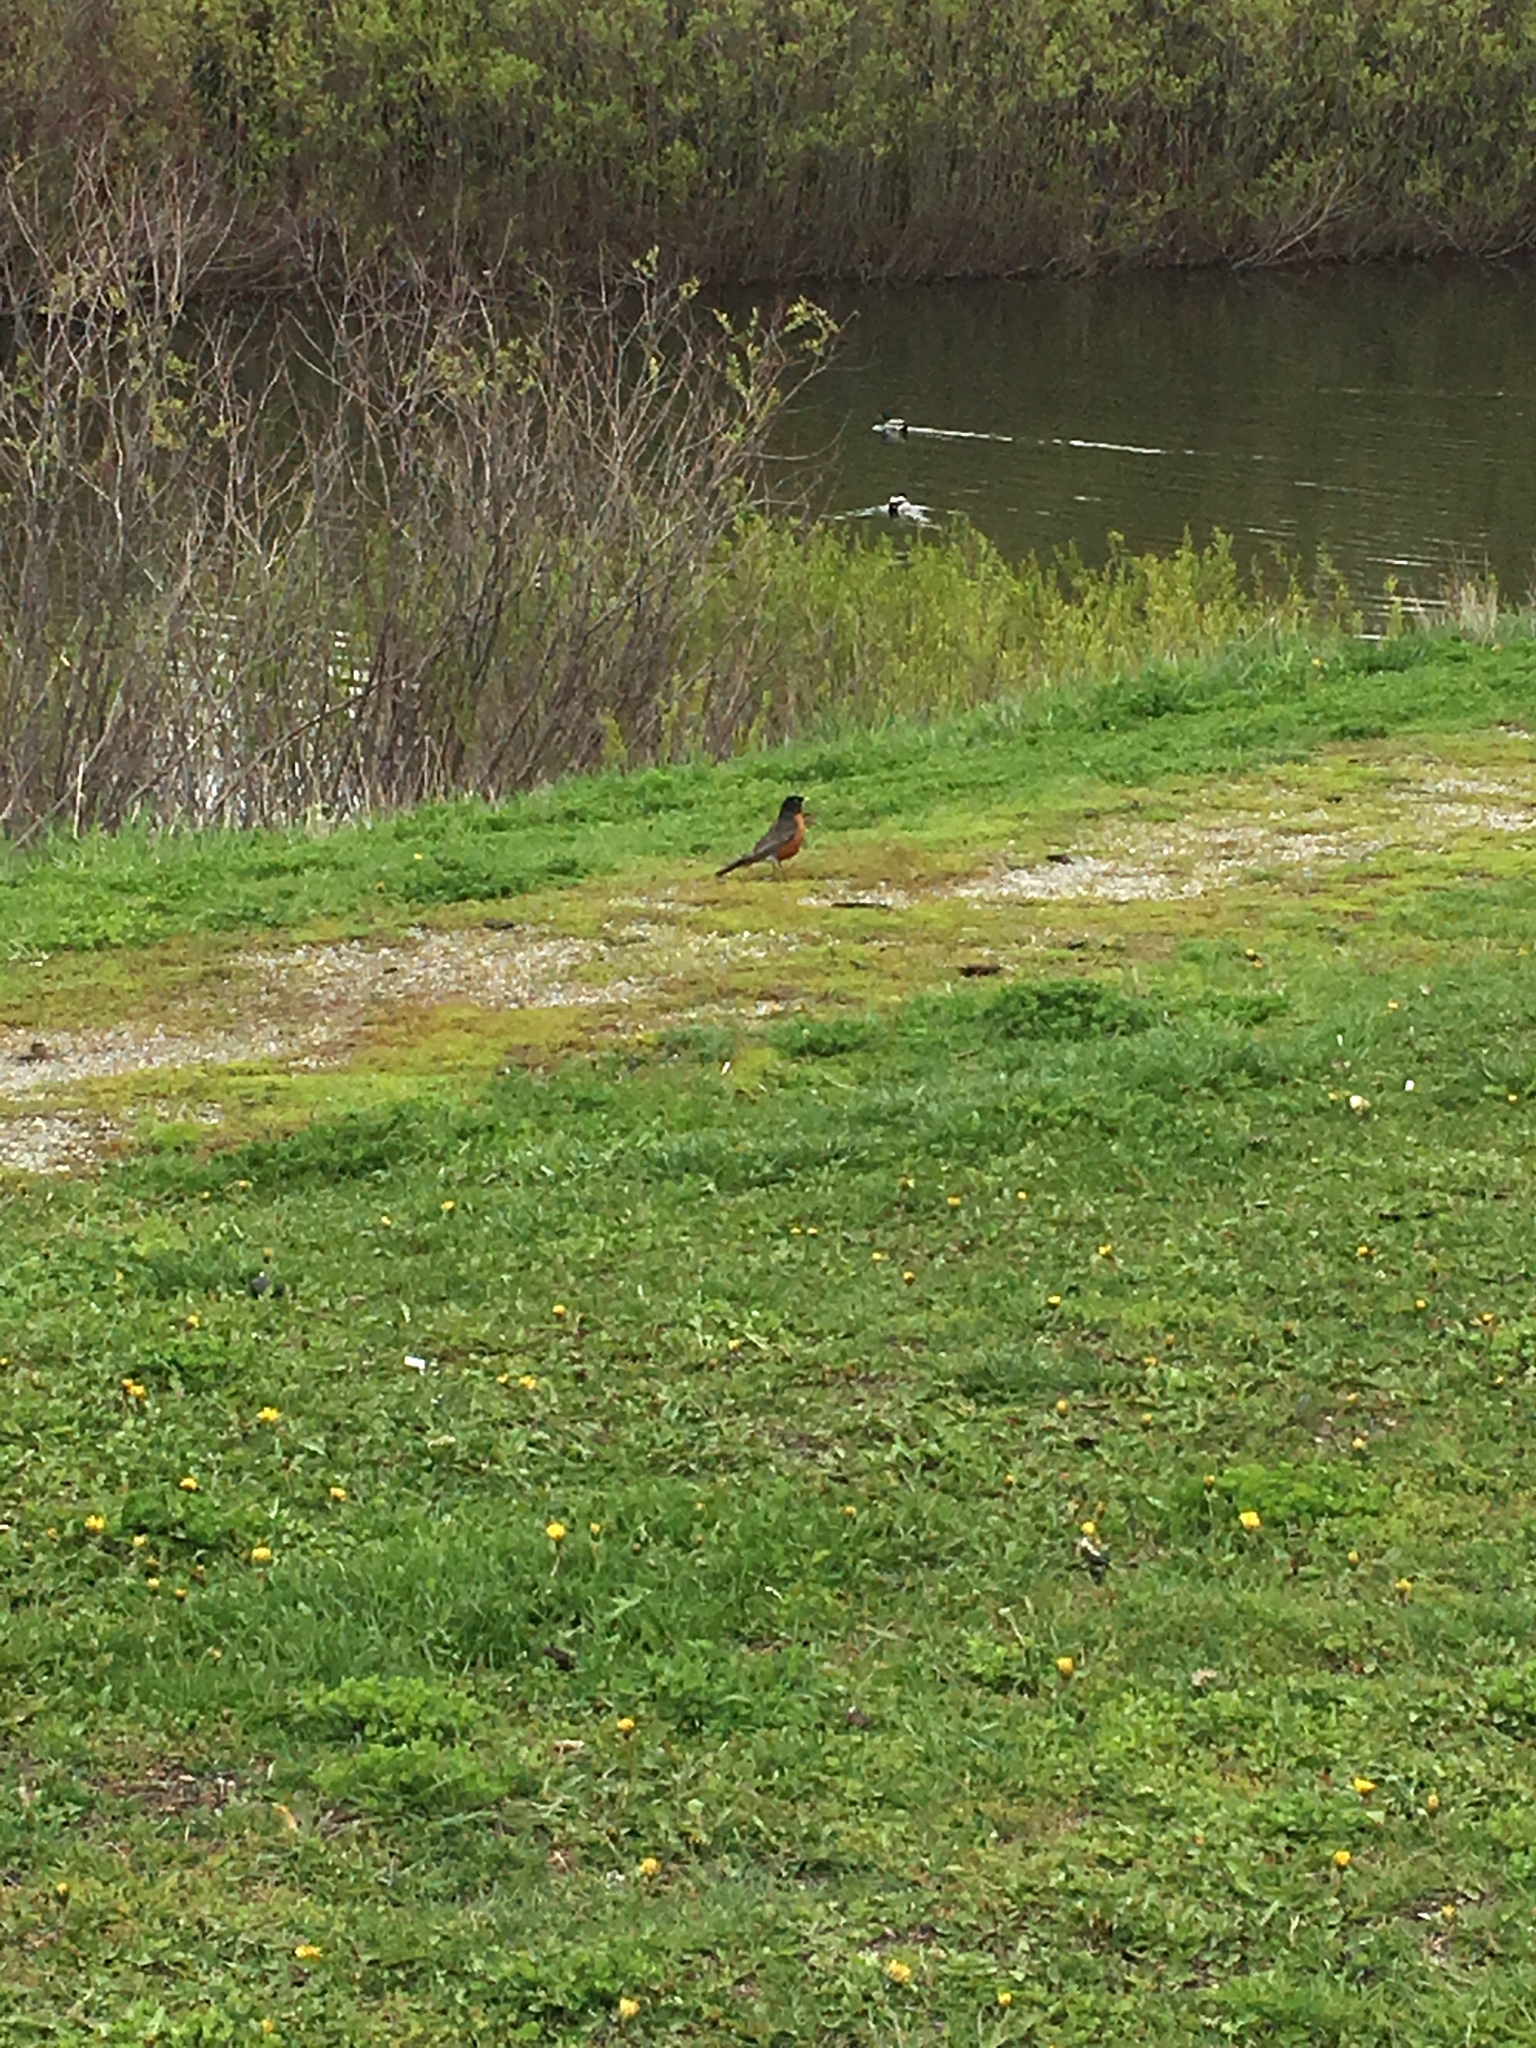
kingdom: Animalia
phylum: Chordata
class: Aves
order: Passeriformes
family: Turdidae
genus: Turdus
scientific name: Turdus migratorius
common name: American robin
